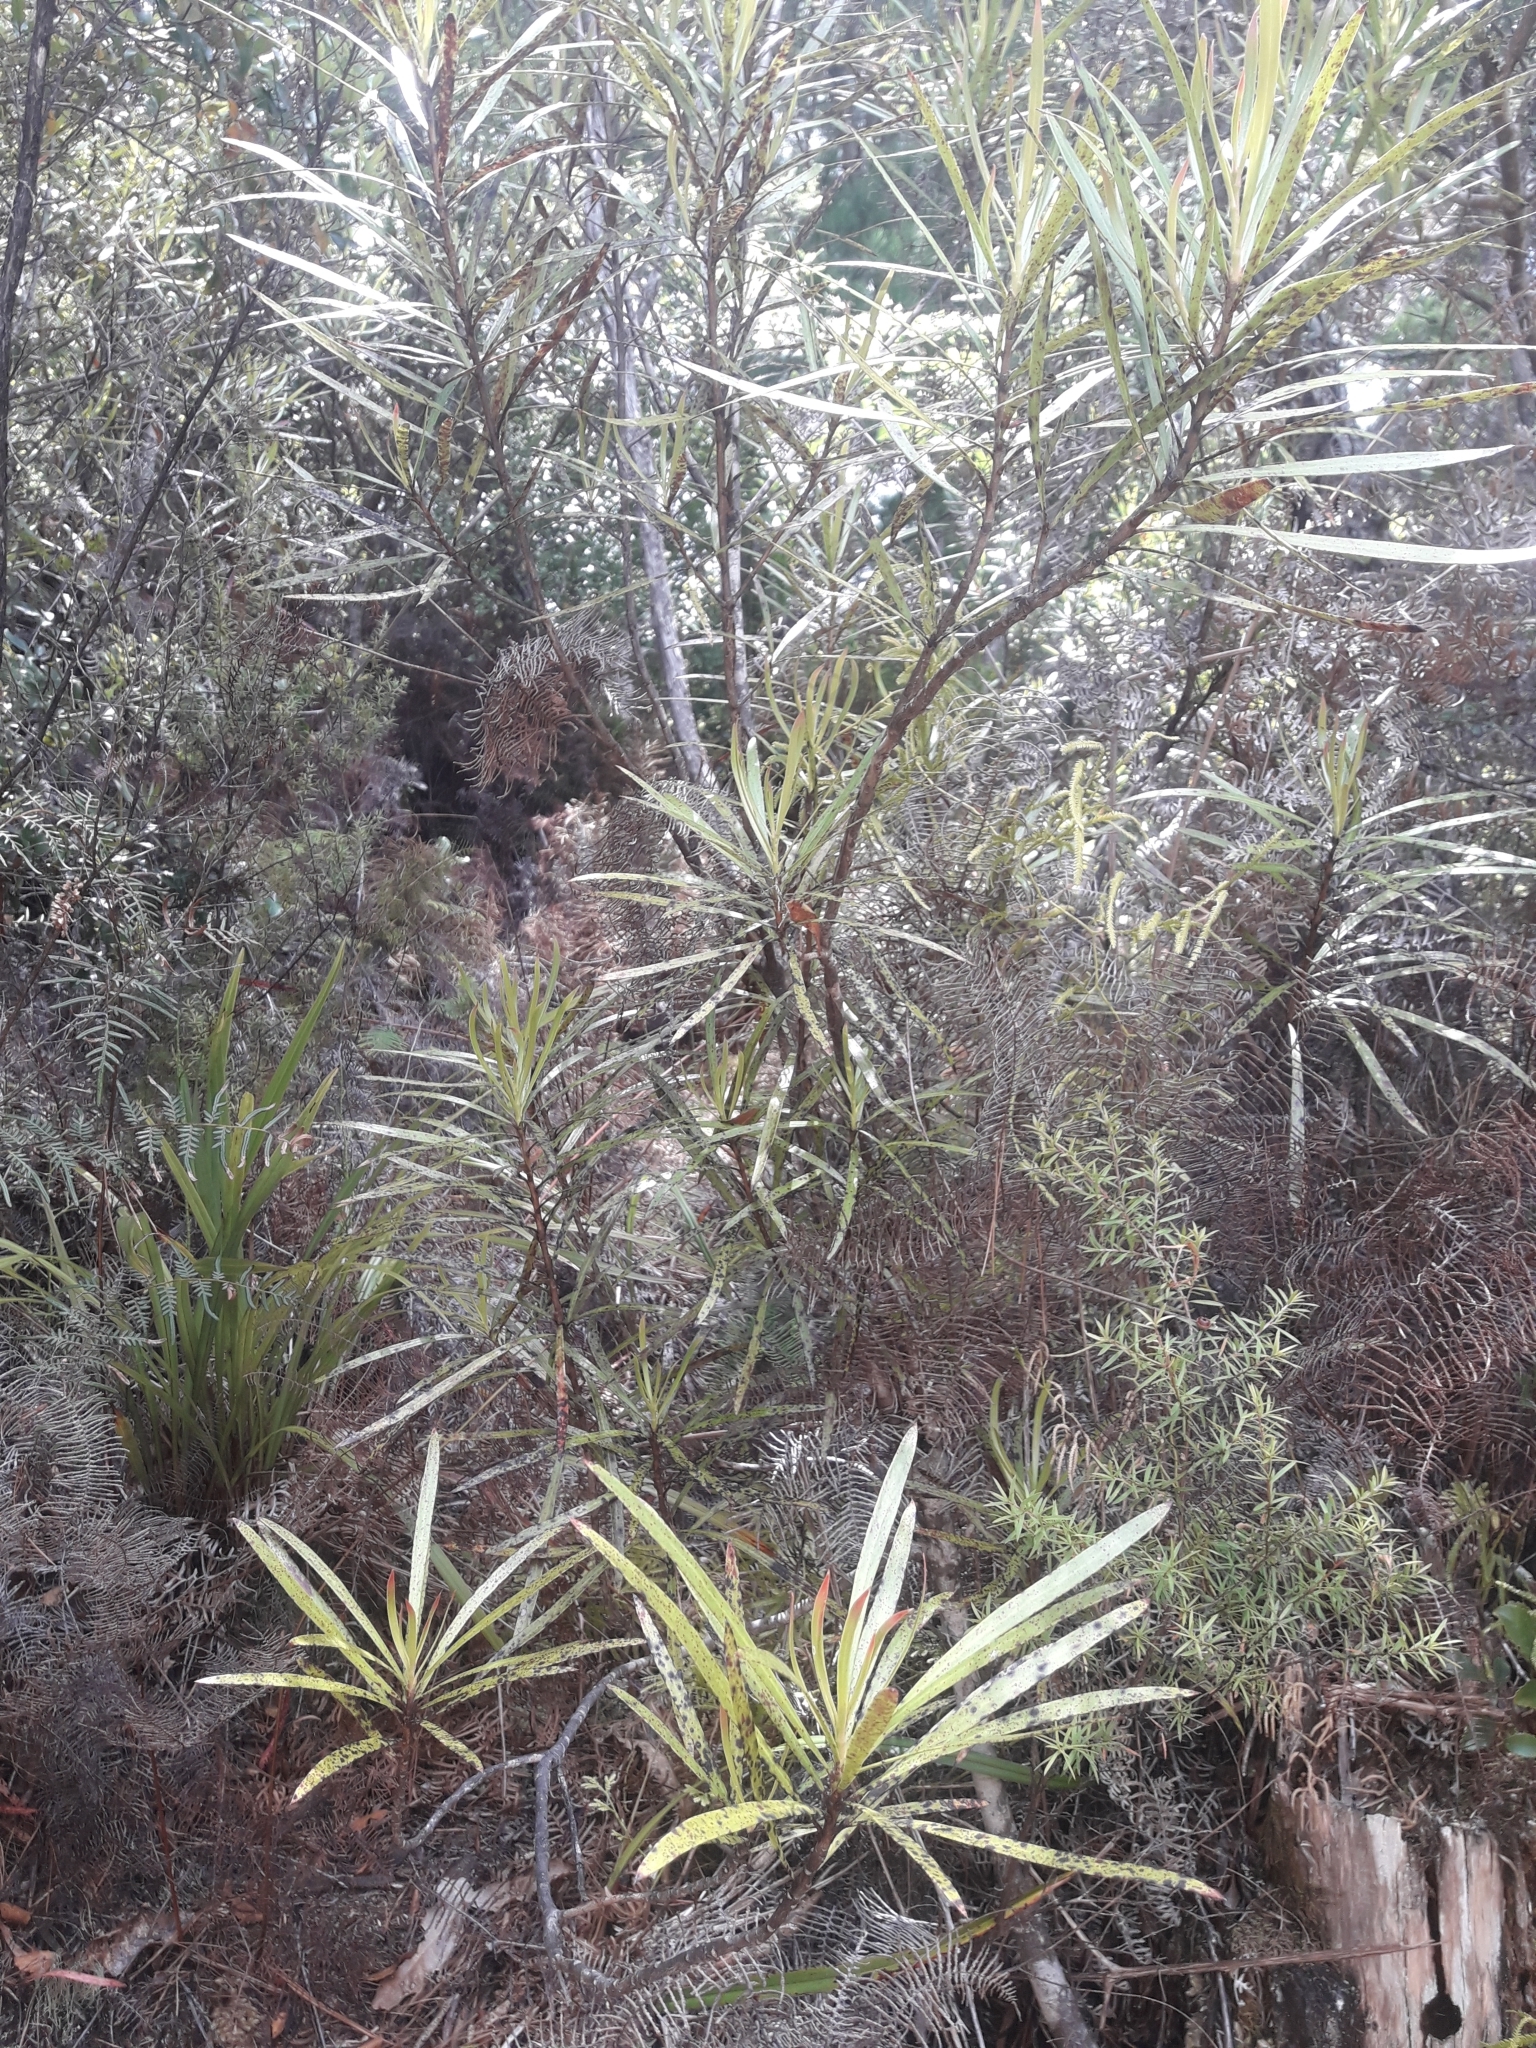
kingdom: Plantae
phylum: Tracheophyta
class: Magnoliopsida
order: Proteales
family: Proteaceae
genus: Toronia
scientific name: Toronia toru
